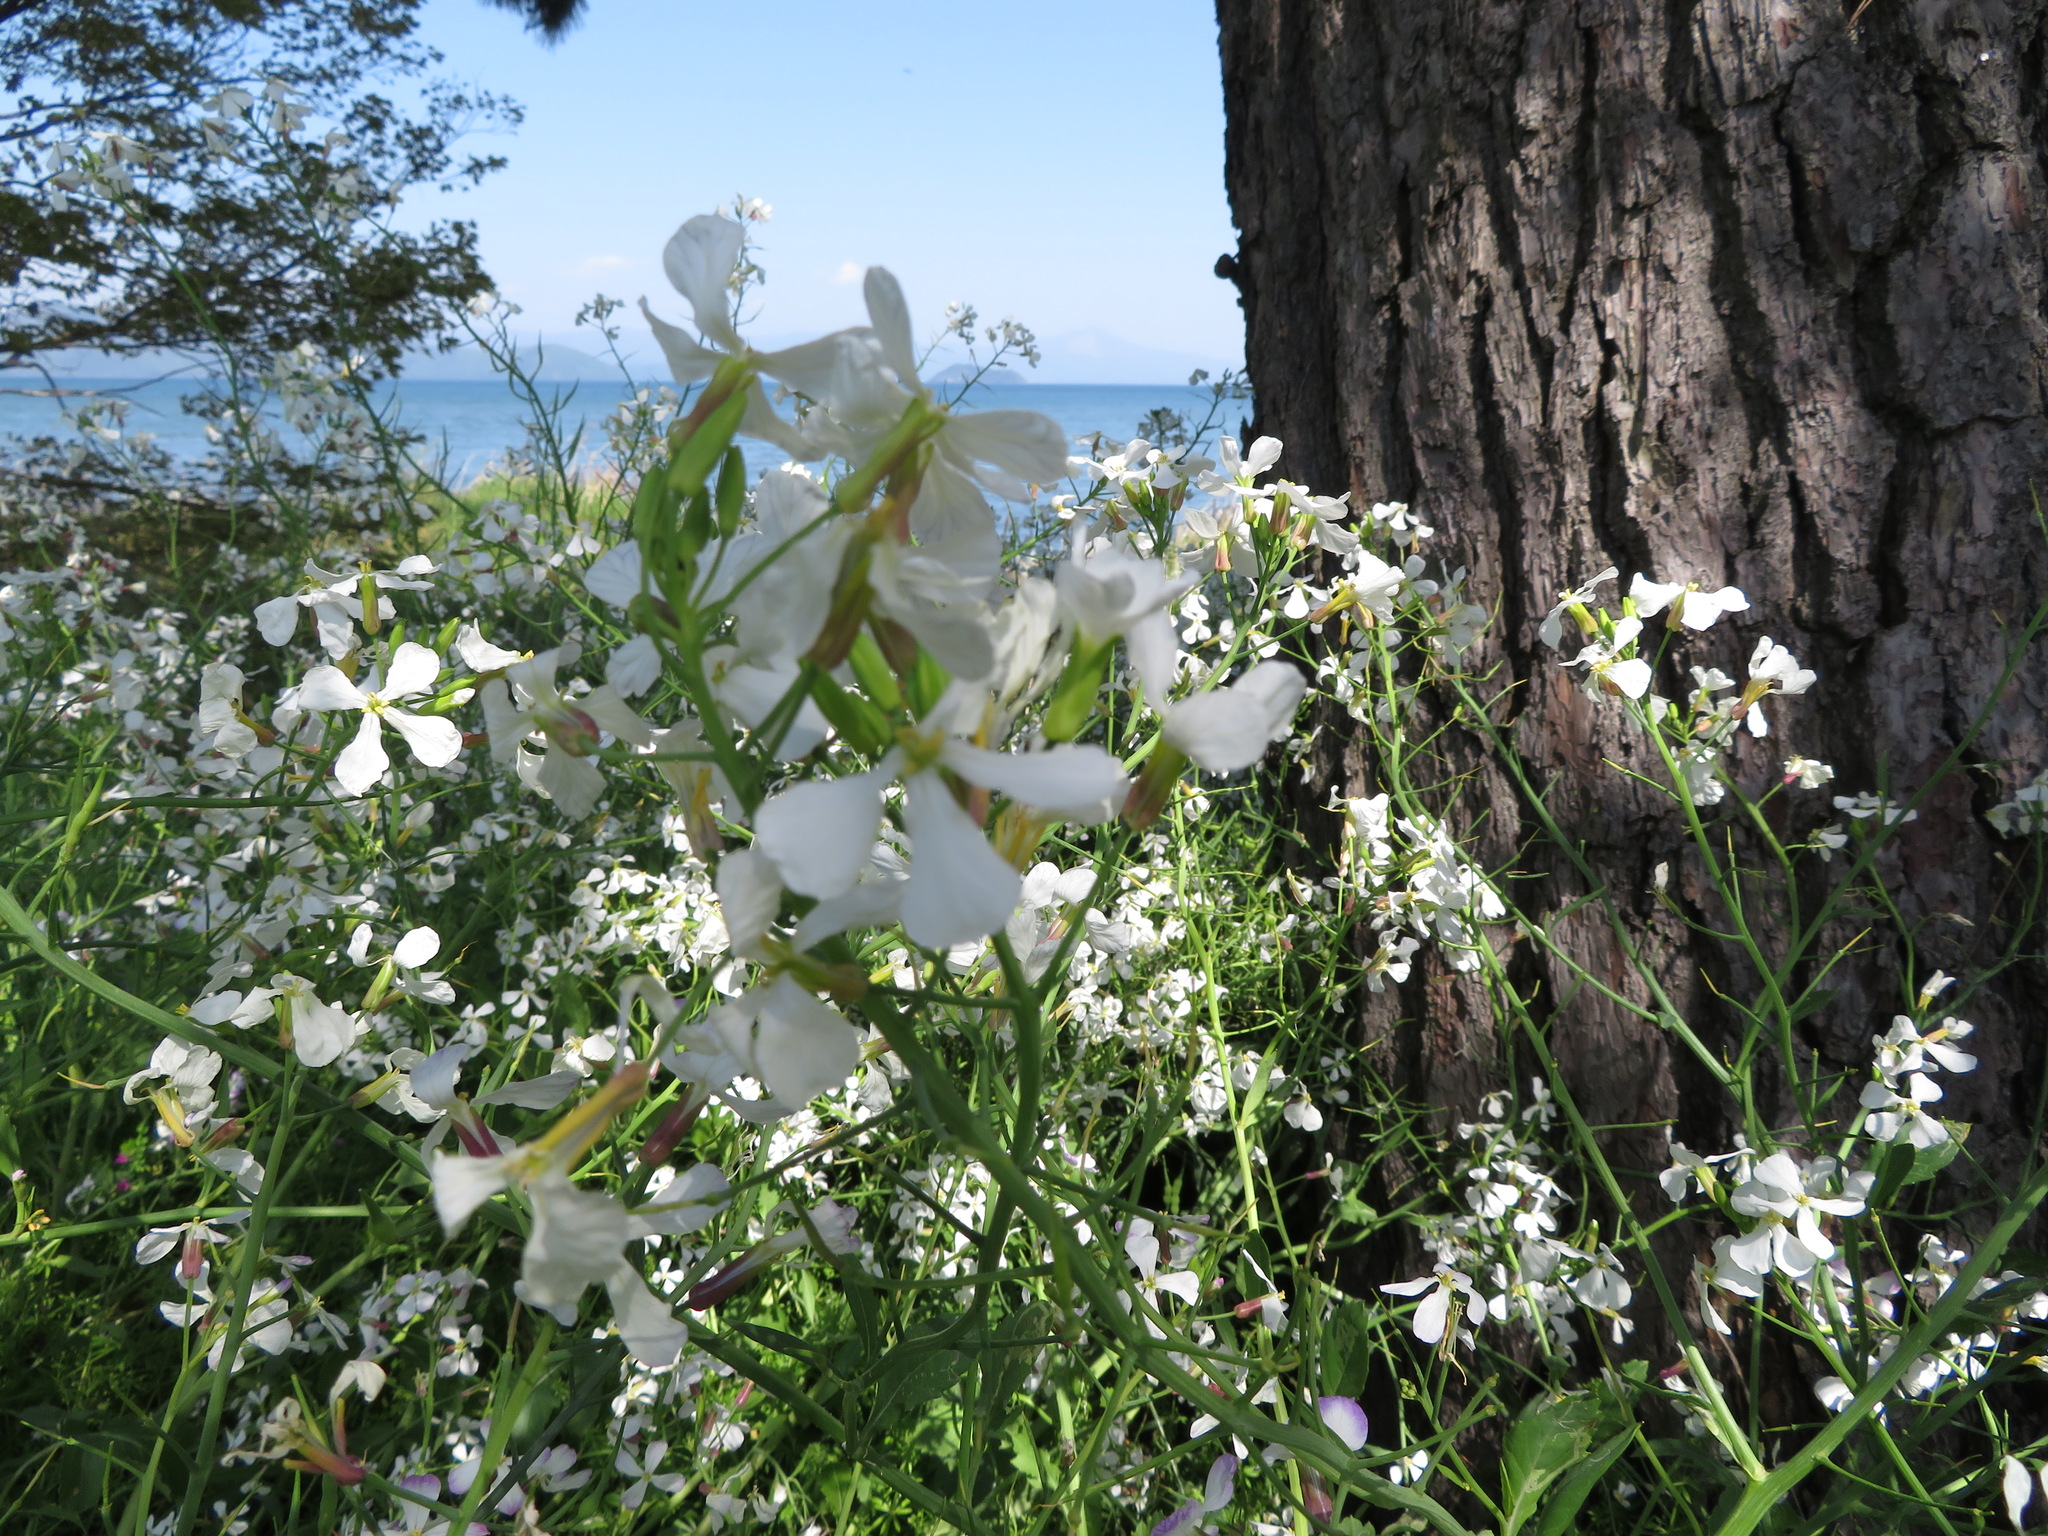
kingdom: Plantae
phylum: Tracheophyta
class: Magnoliopsida
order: Brassicales
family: Brassicaceae
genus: Raphanus
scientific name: Raphanus sativus
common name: Cultivated radish
